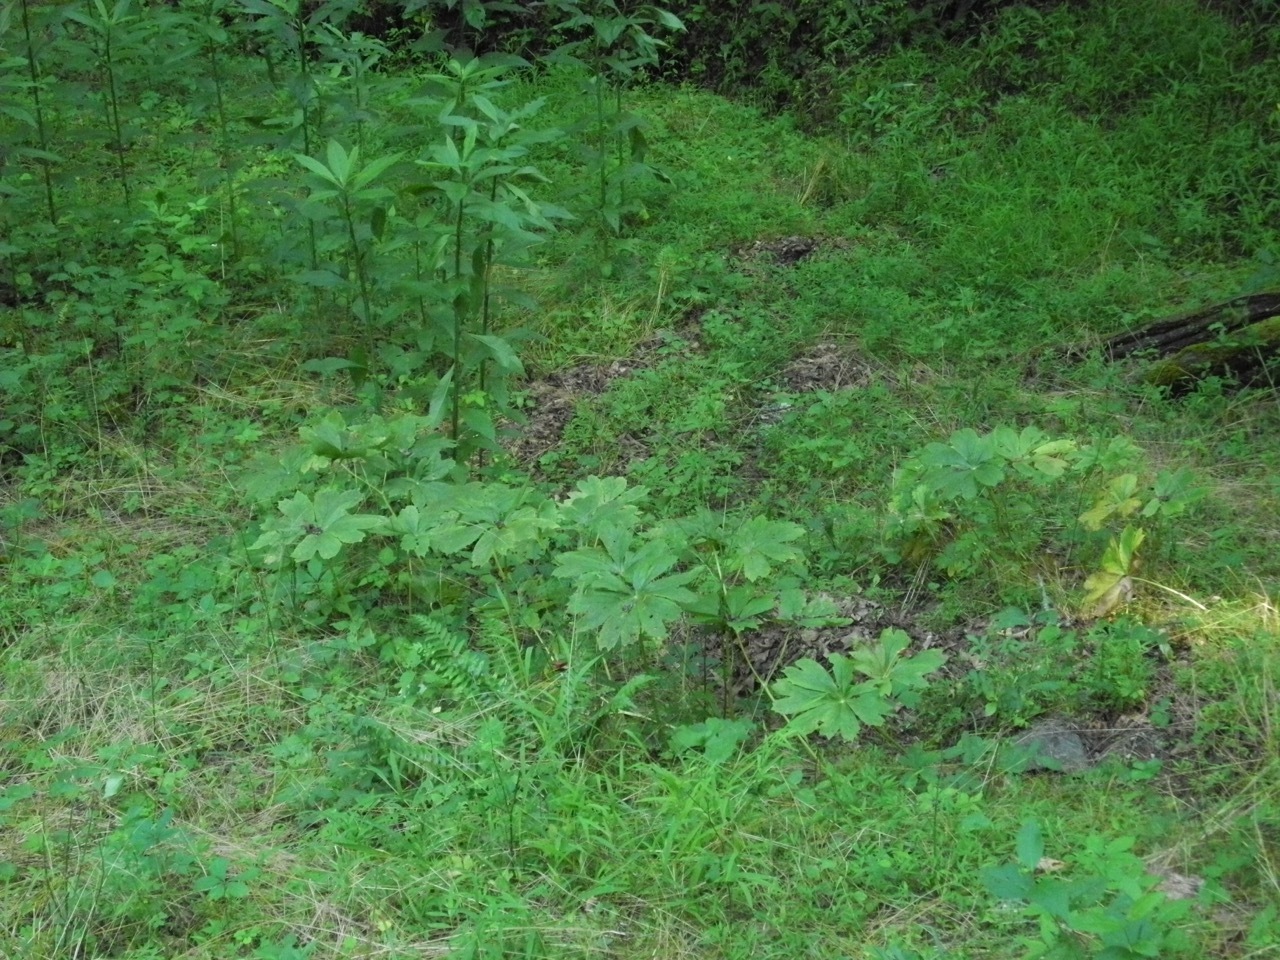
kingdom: Plantae
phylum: Tracheophyta
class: Magnoliopsida
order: Ranunculales
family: Berberidaceae
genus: Podophyllum
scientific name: Podophyllum peltatum
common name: Wild mandrake
